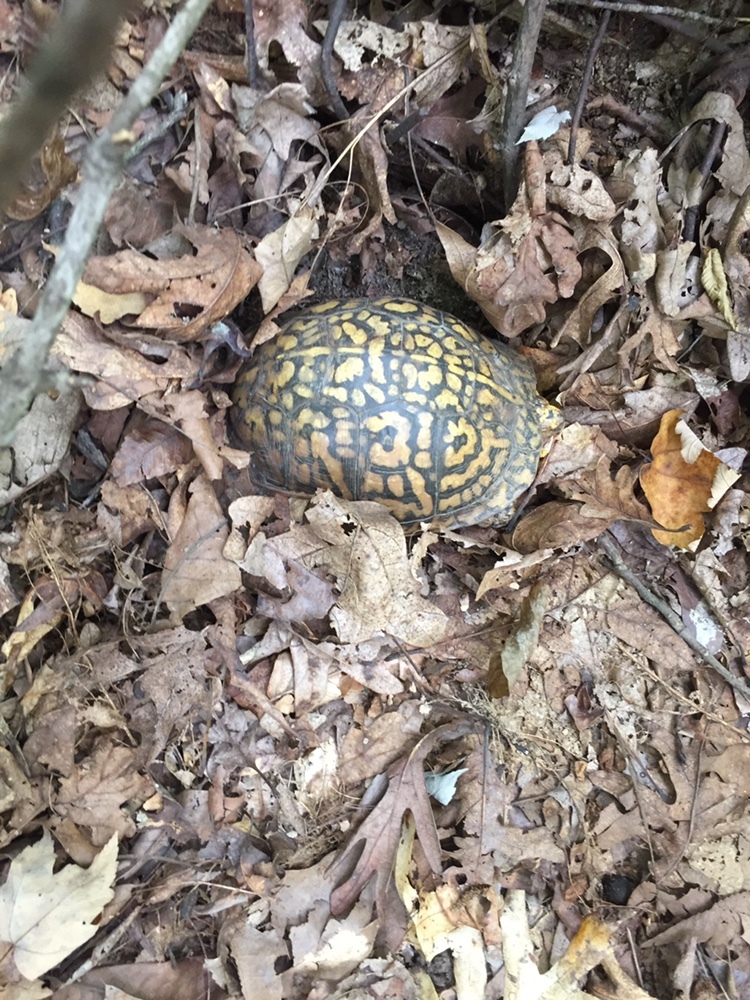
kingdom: Animalia
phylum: Chordata
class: Testudines
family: Emydidae
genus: Terrapene
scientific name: Terrapene carolina
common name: Common box turtle
